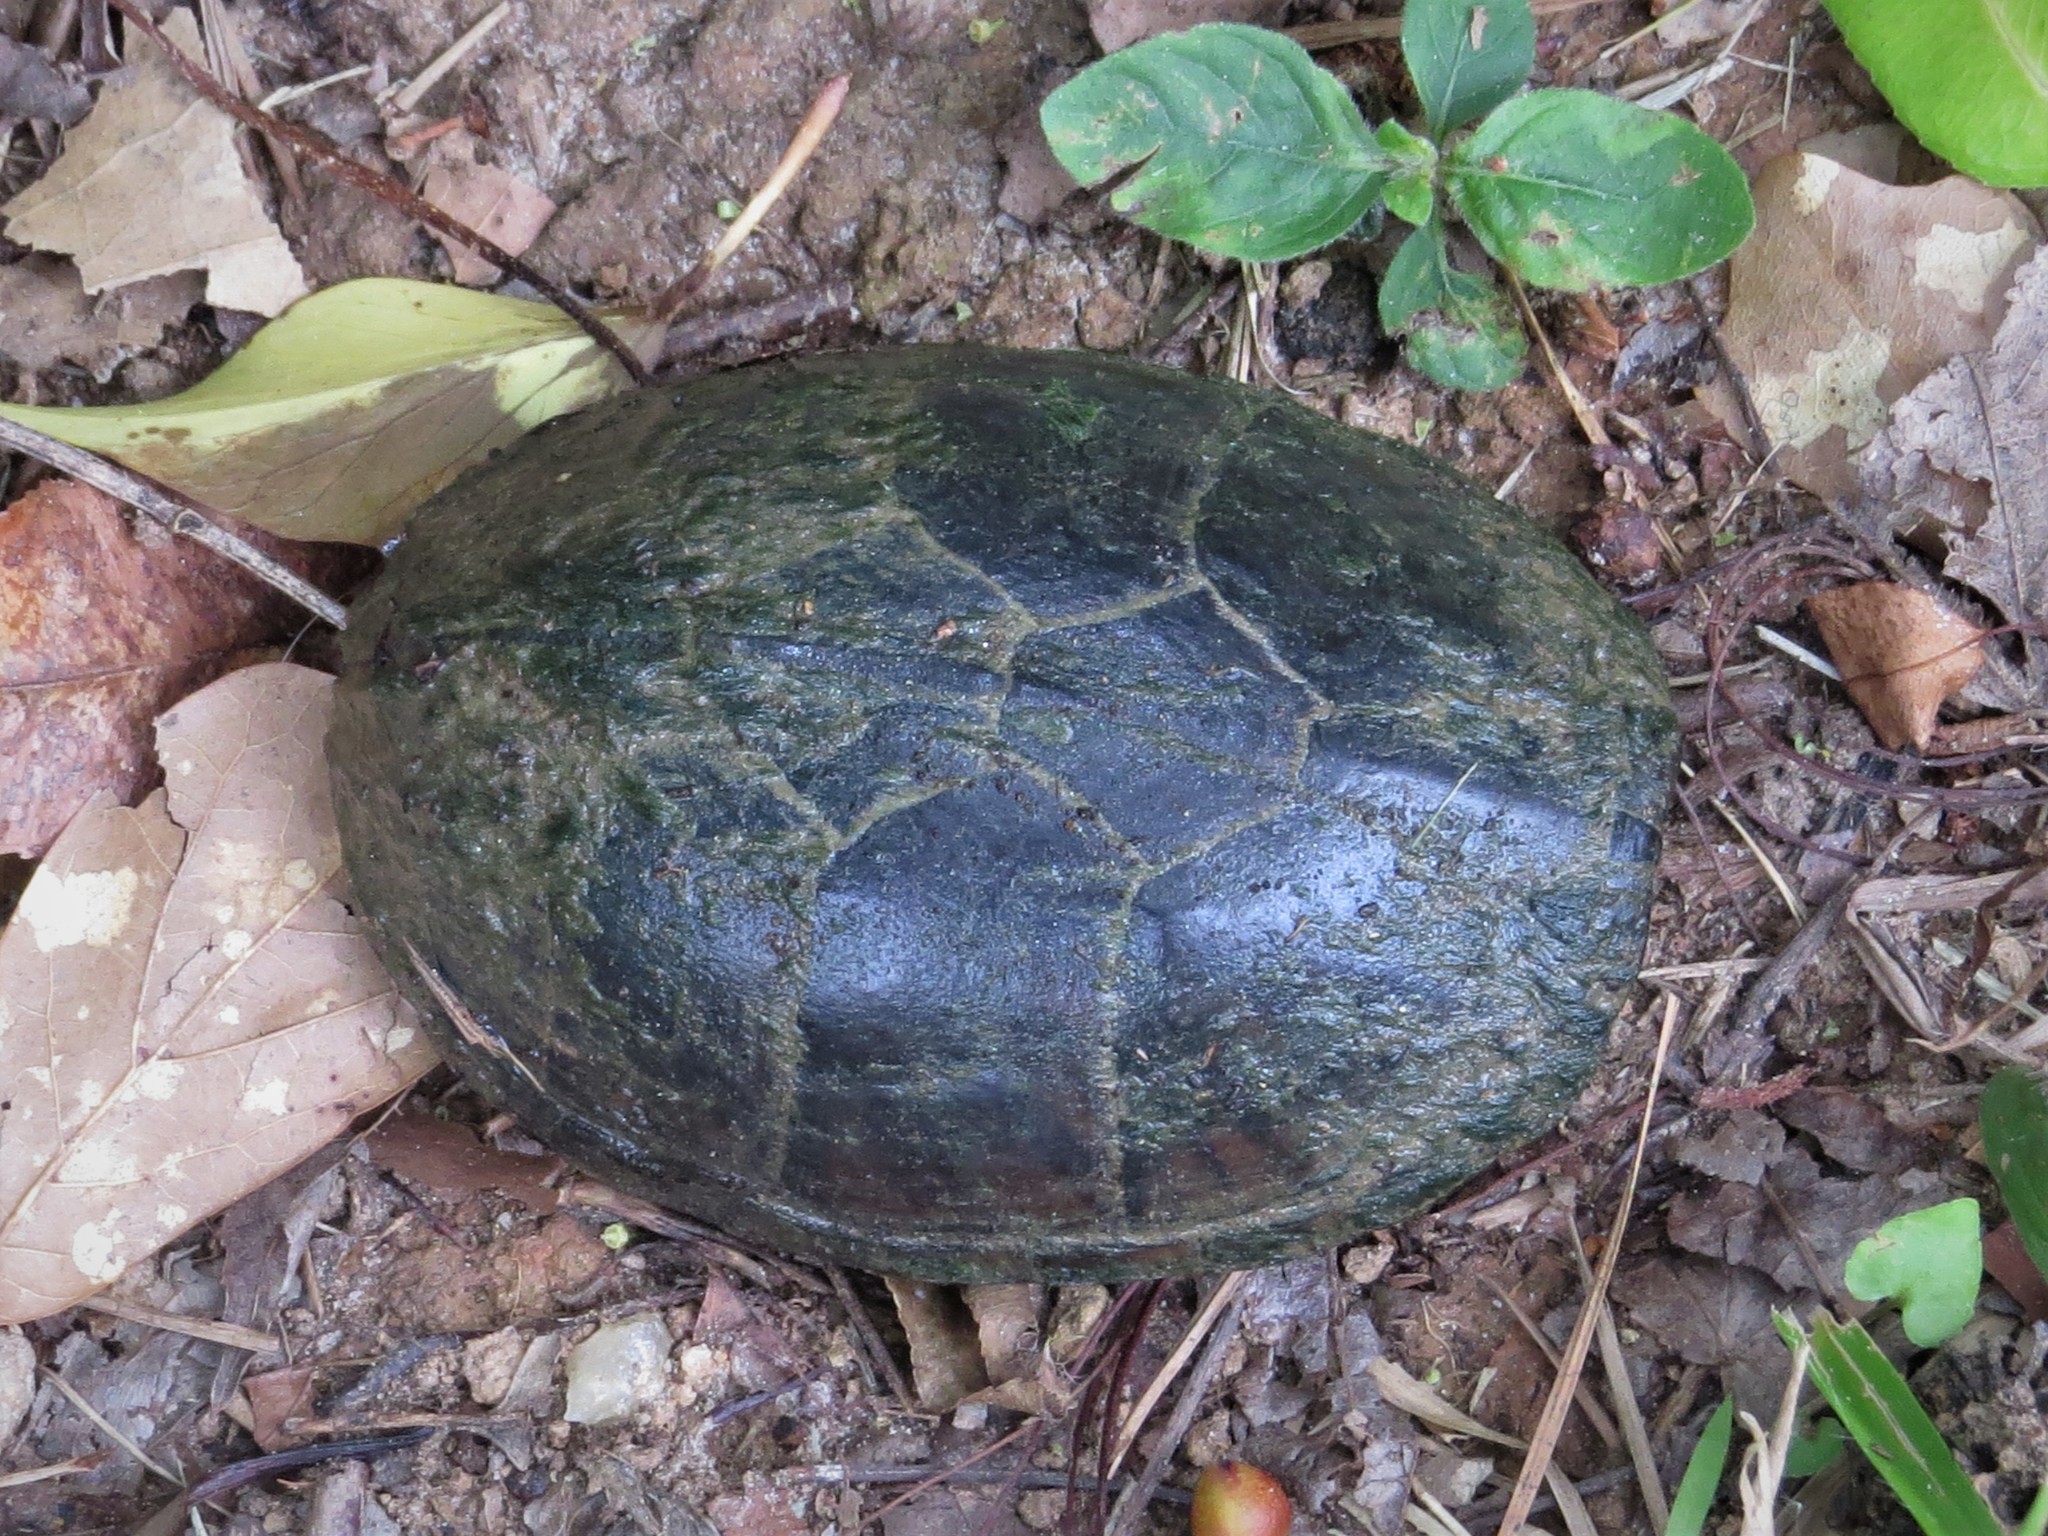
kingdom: Animalia
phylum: Chordata
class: Testudines
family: Kinosternidae
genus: Sternotherus
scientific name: Sternotherus odoratus
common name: Common musk turtle
